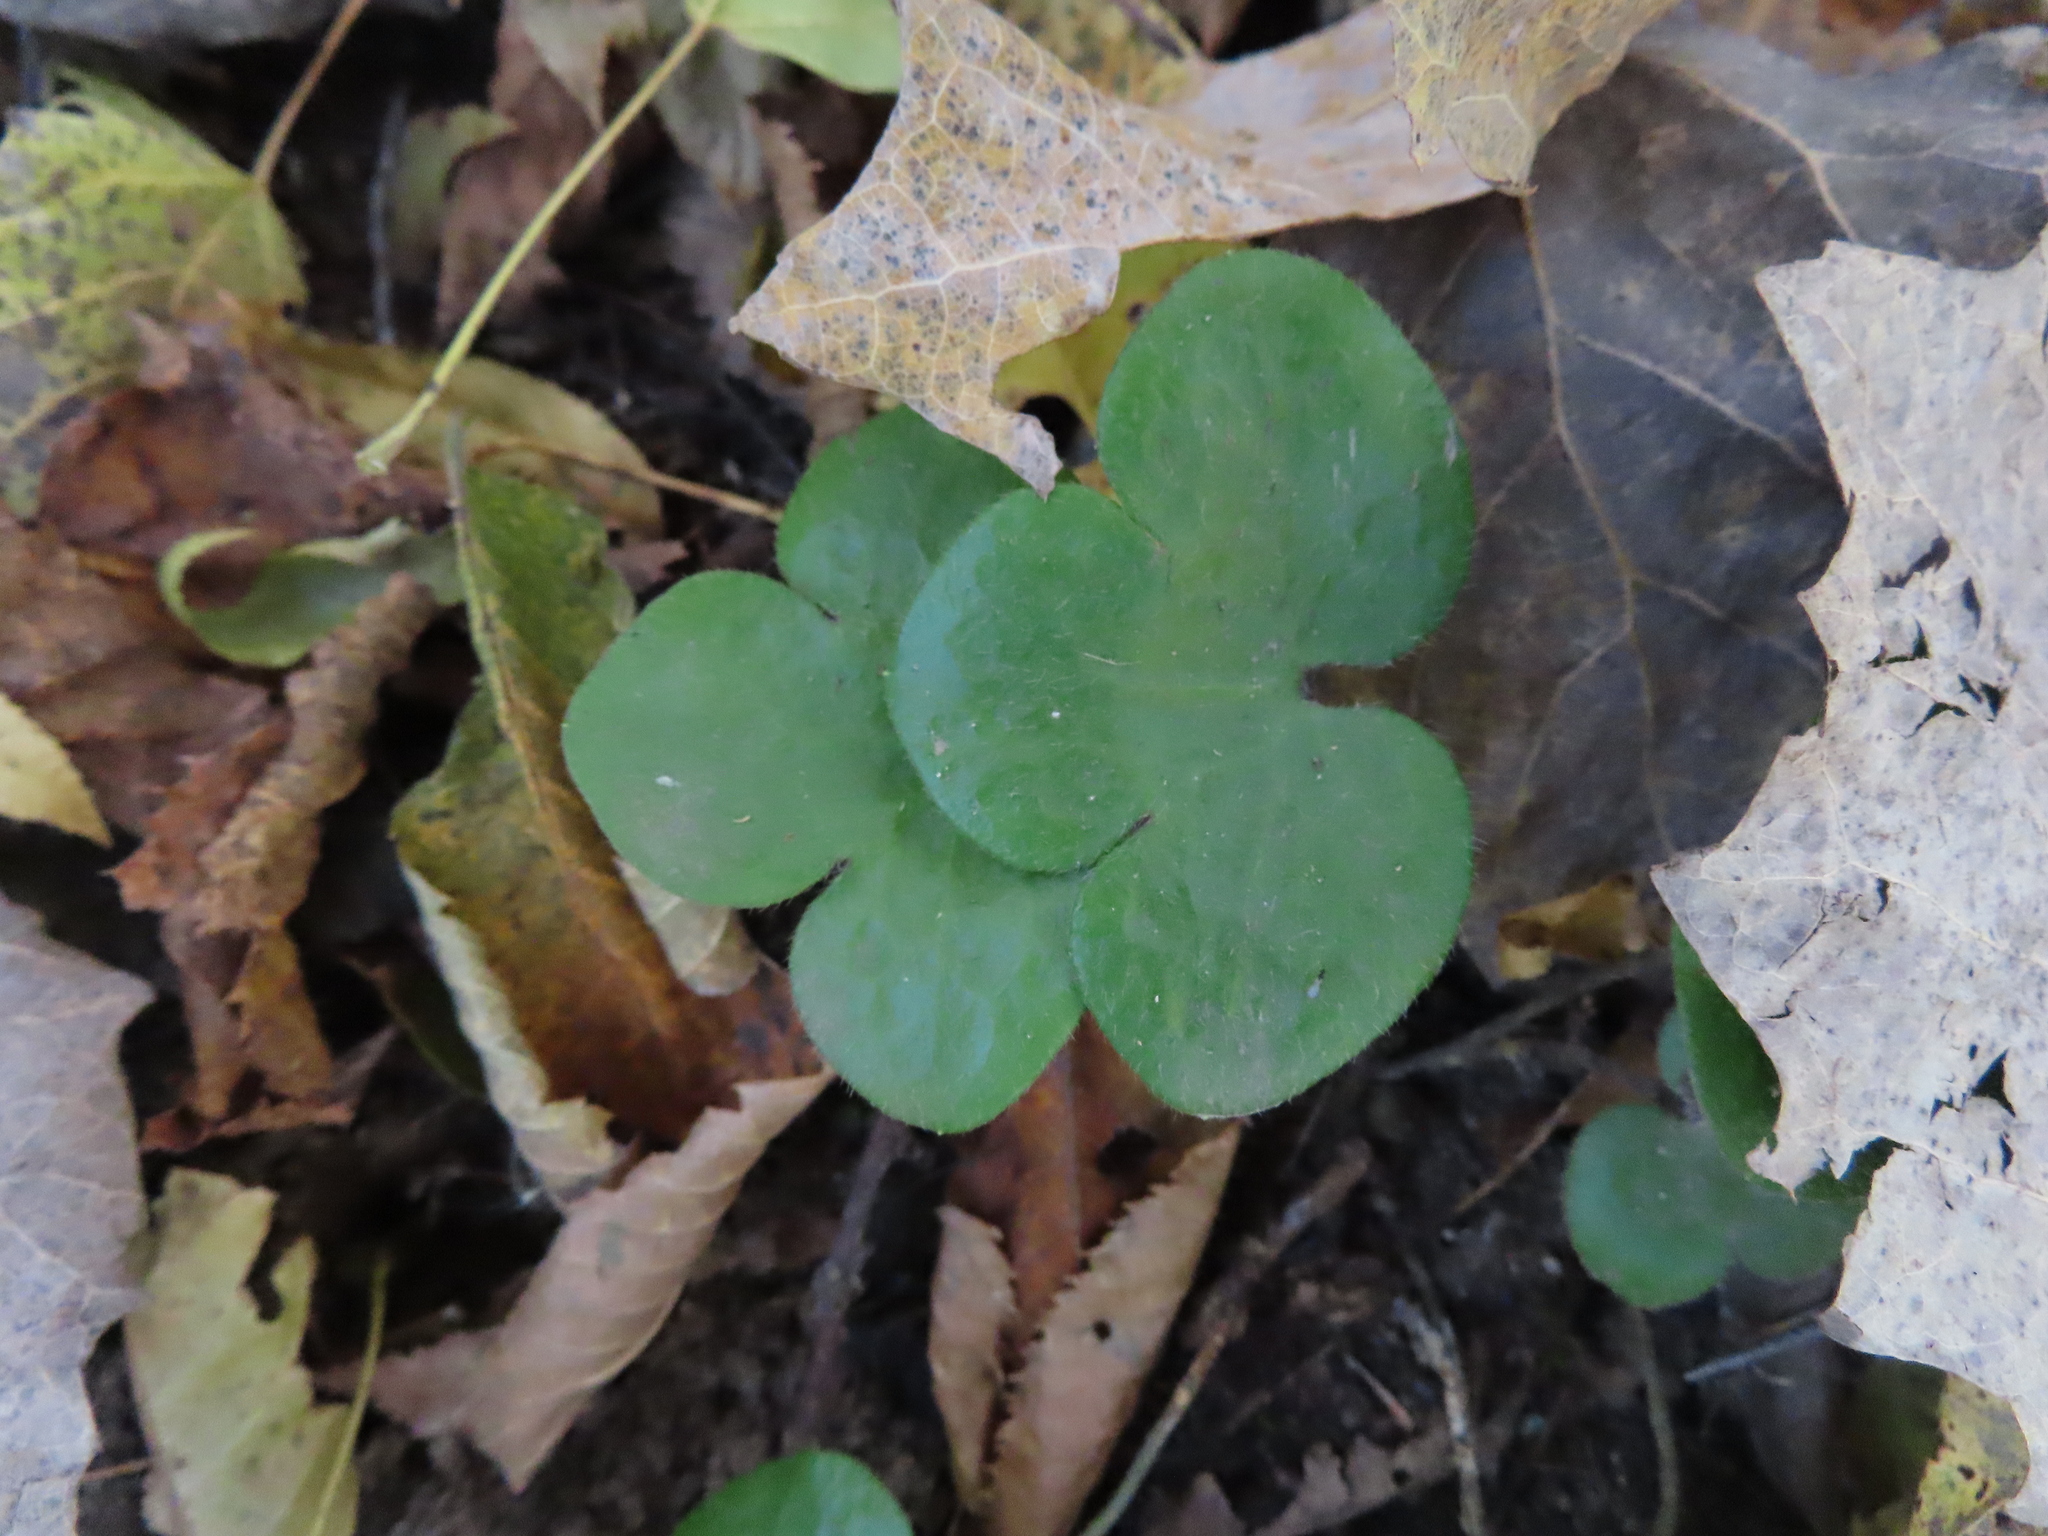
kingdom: Plantae
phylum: Tracheophyta
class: Magnoliopsida
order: Ranunculales
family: Ranunculaceae
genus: Hepatica
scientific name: Hepatica americana
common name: American hepatica
